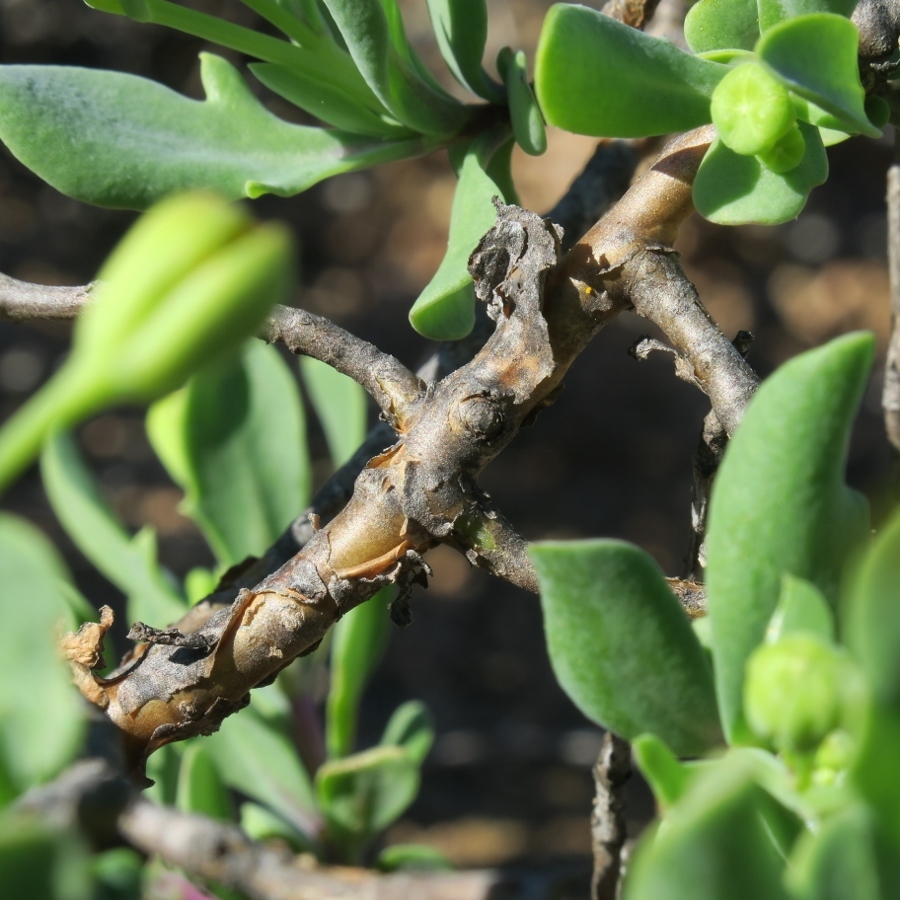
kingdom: Plantae
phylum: Tracheophyta
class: Magnoliopsida
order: Asterales
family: Asteraceae
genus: Othonna
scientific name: Othonna quercifolia
